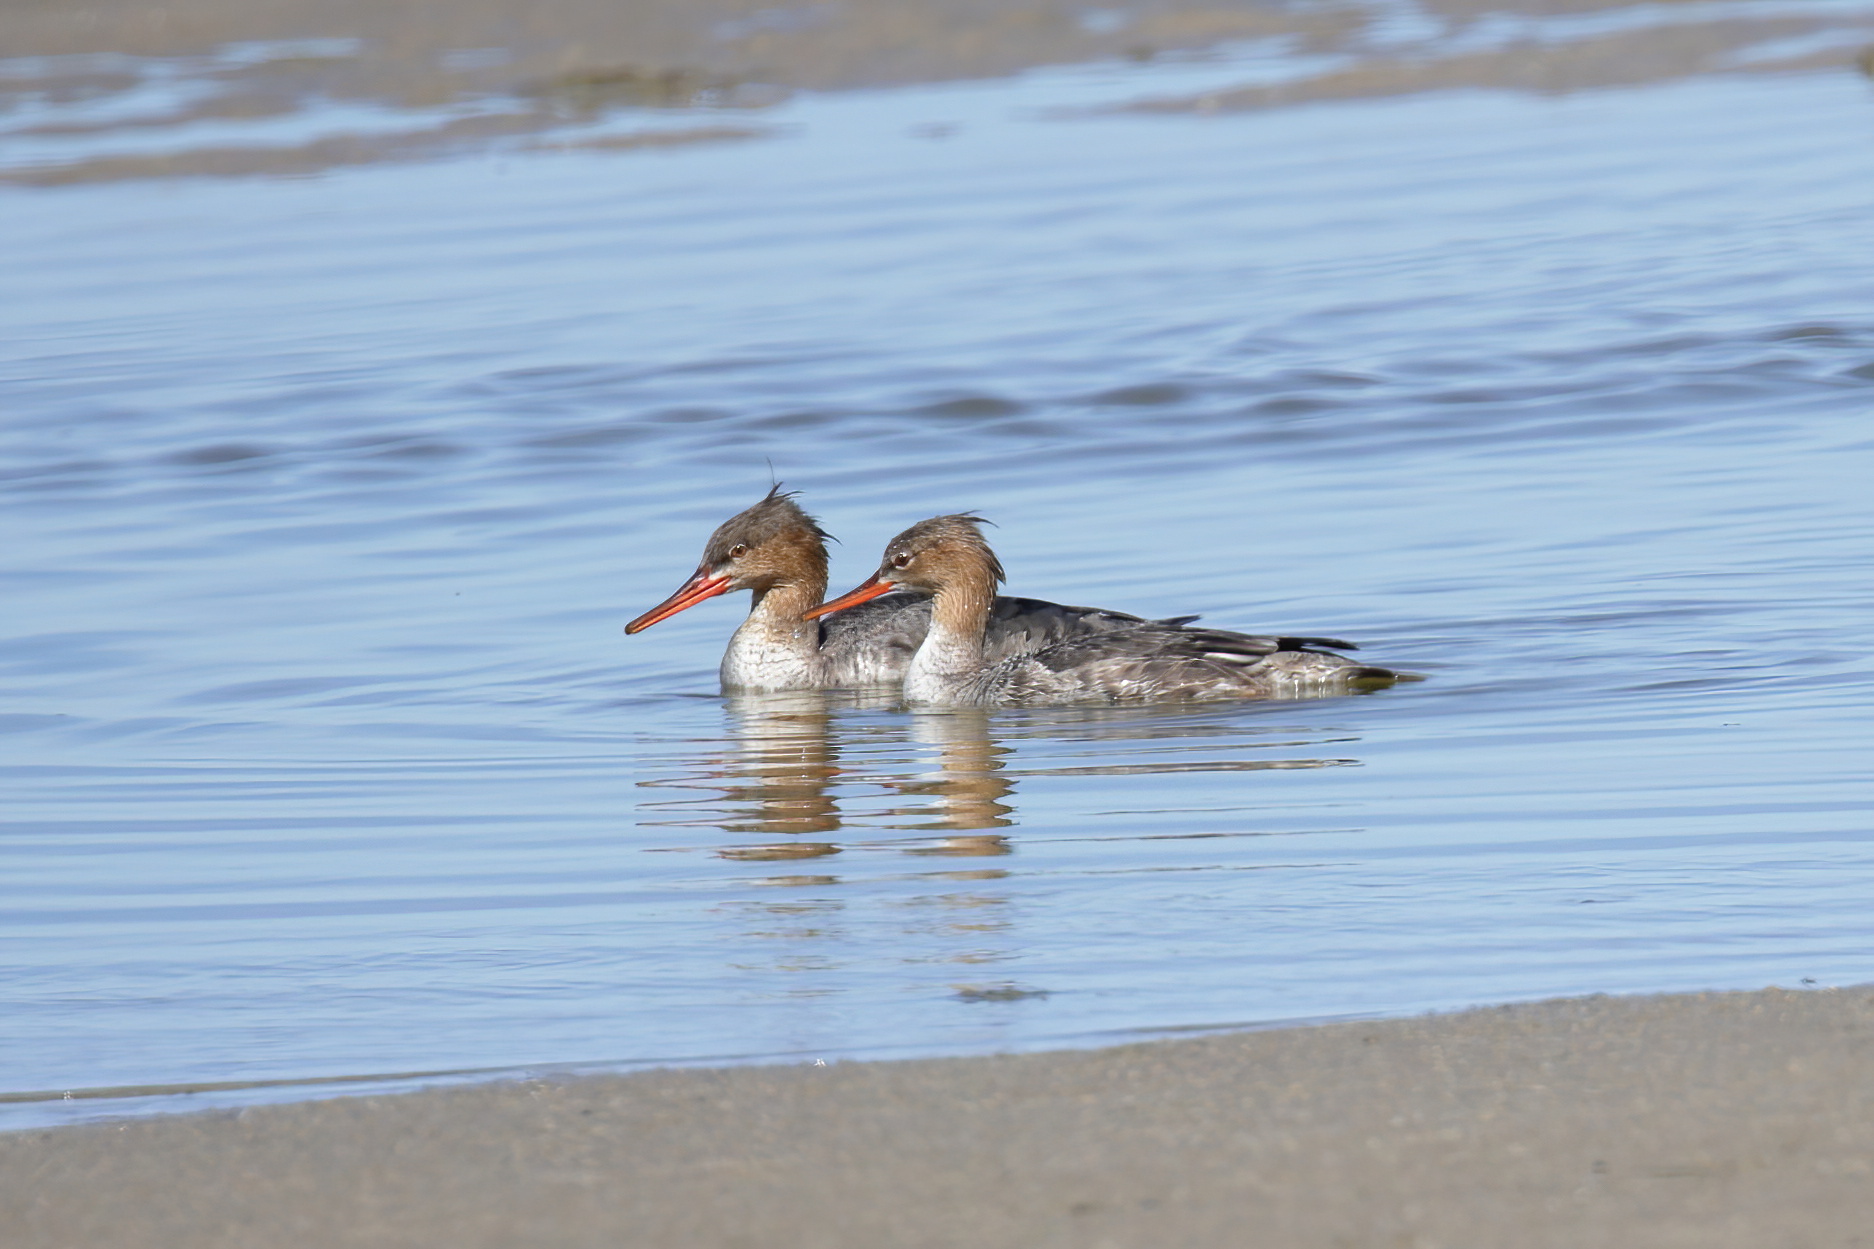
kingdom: Animalia
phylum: Chordata
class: Aves
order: Anseriformes
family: Anatidae
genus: Mergus
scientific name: Mergus serrator
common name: Red-breasted merganser
